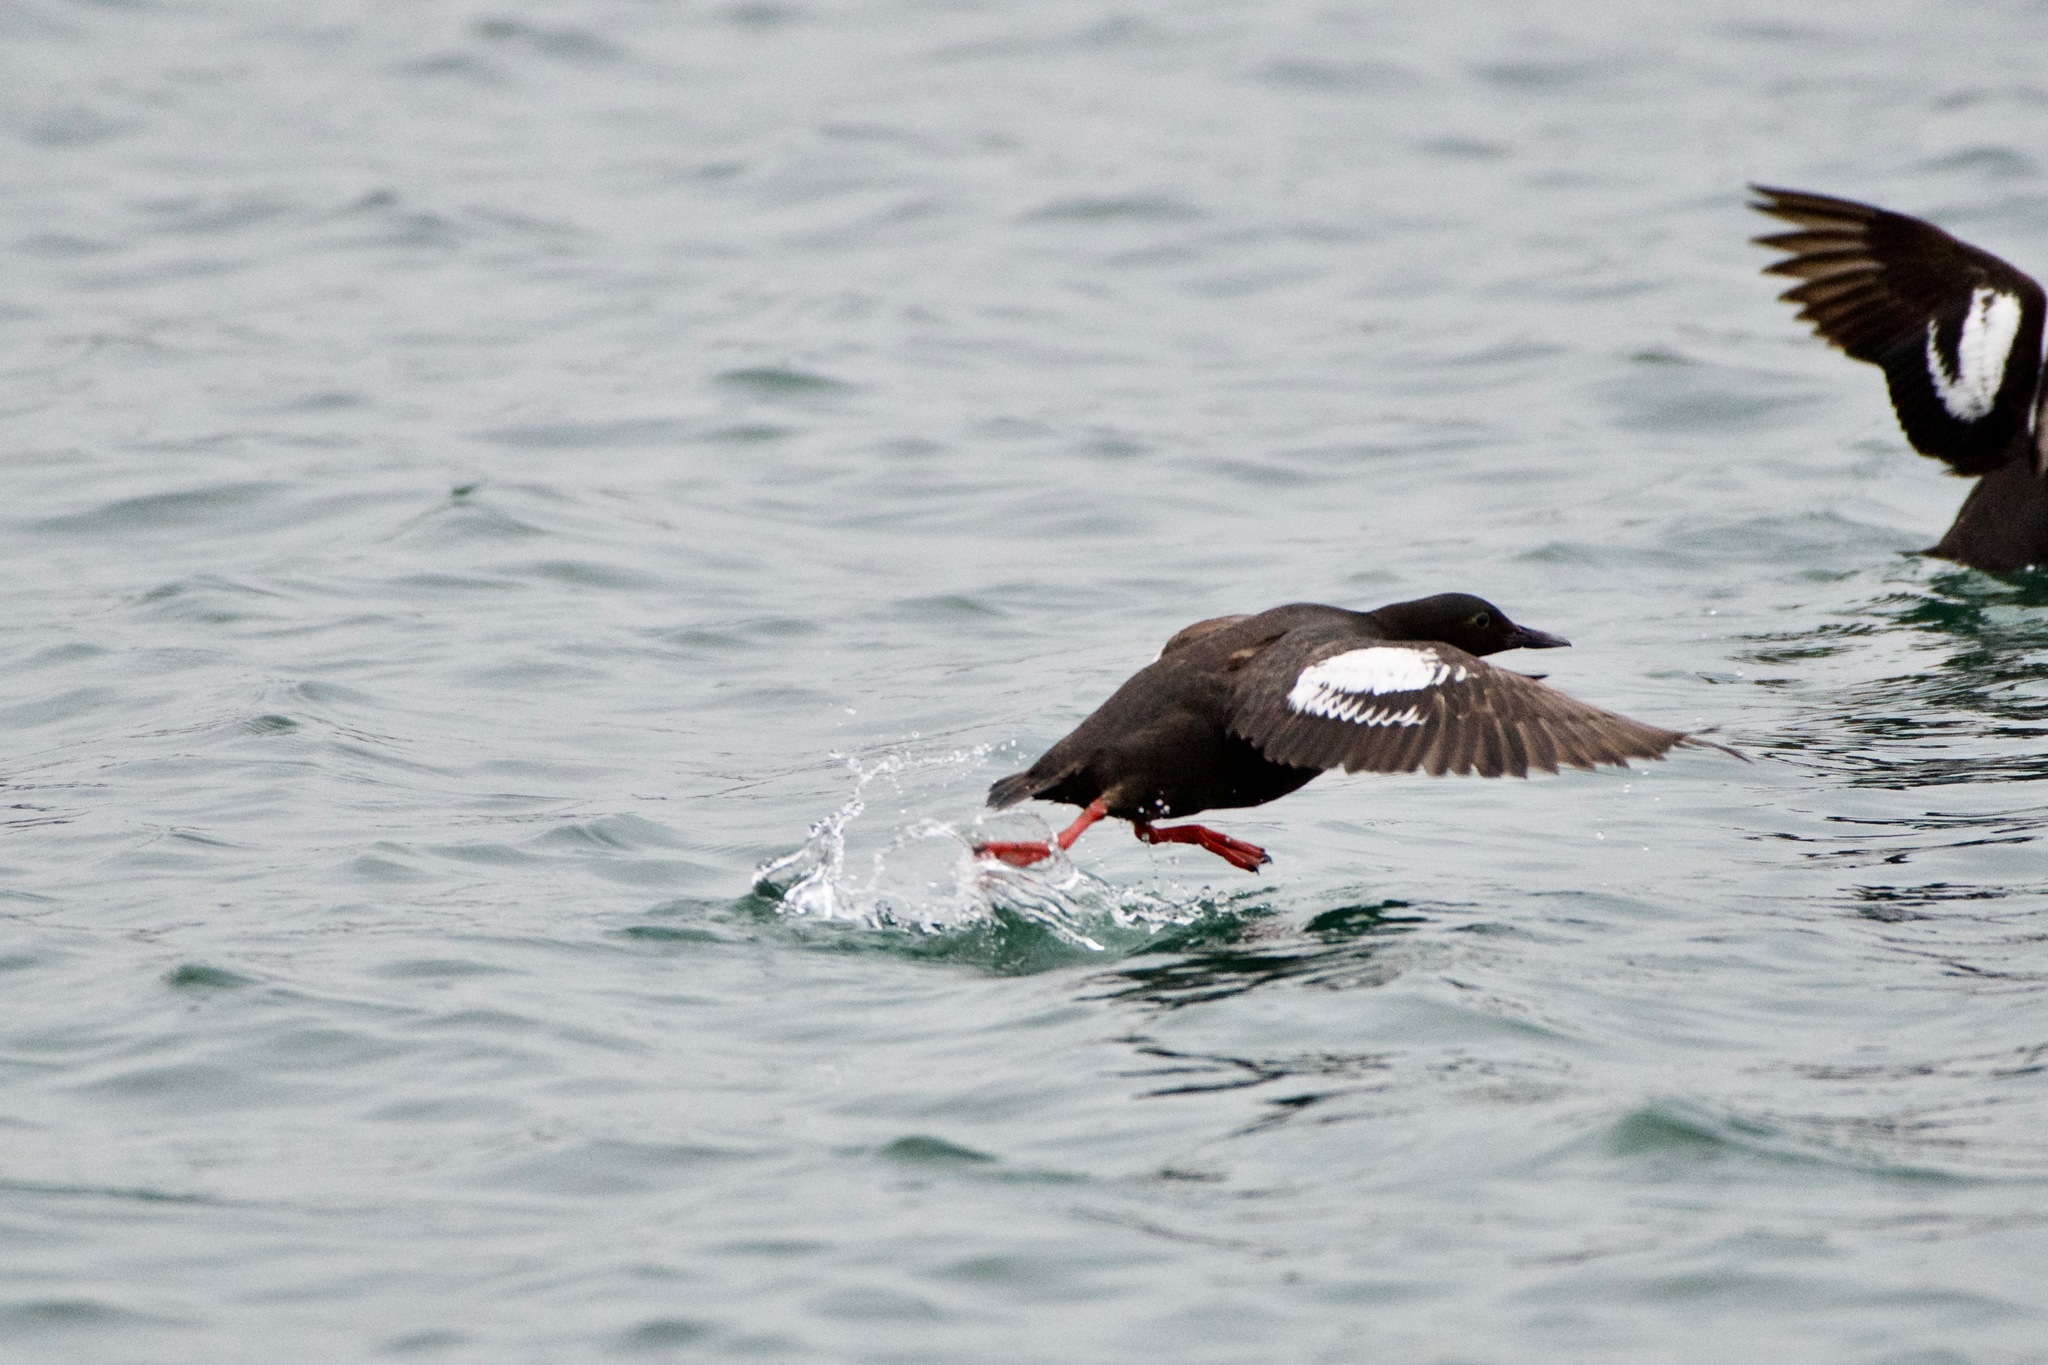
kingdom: Animalia
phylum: Chordata
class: Aves
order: Charadriiformes
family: Alcidae
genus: Cepphus
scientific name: Cepphus columba
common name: Pigeon guillemot
